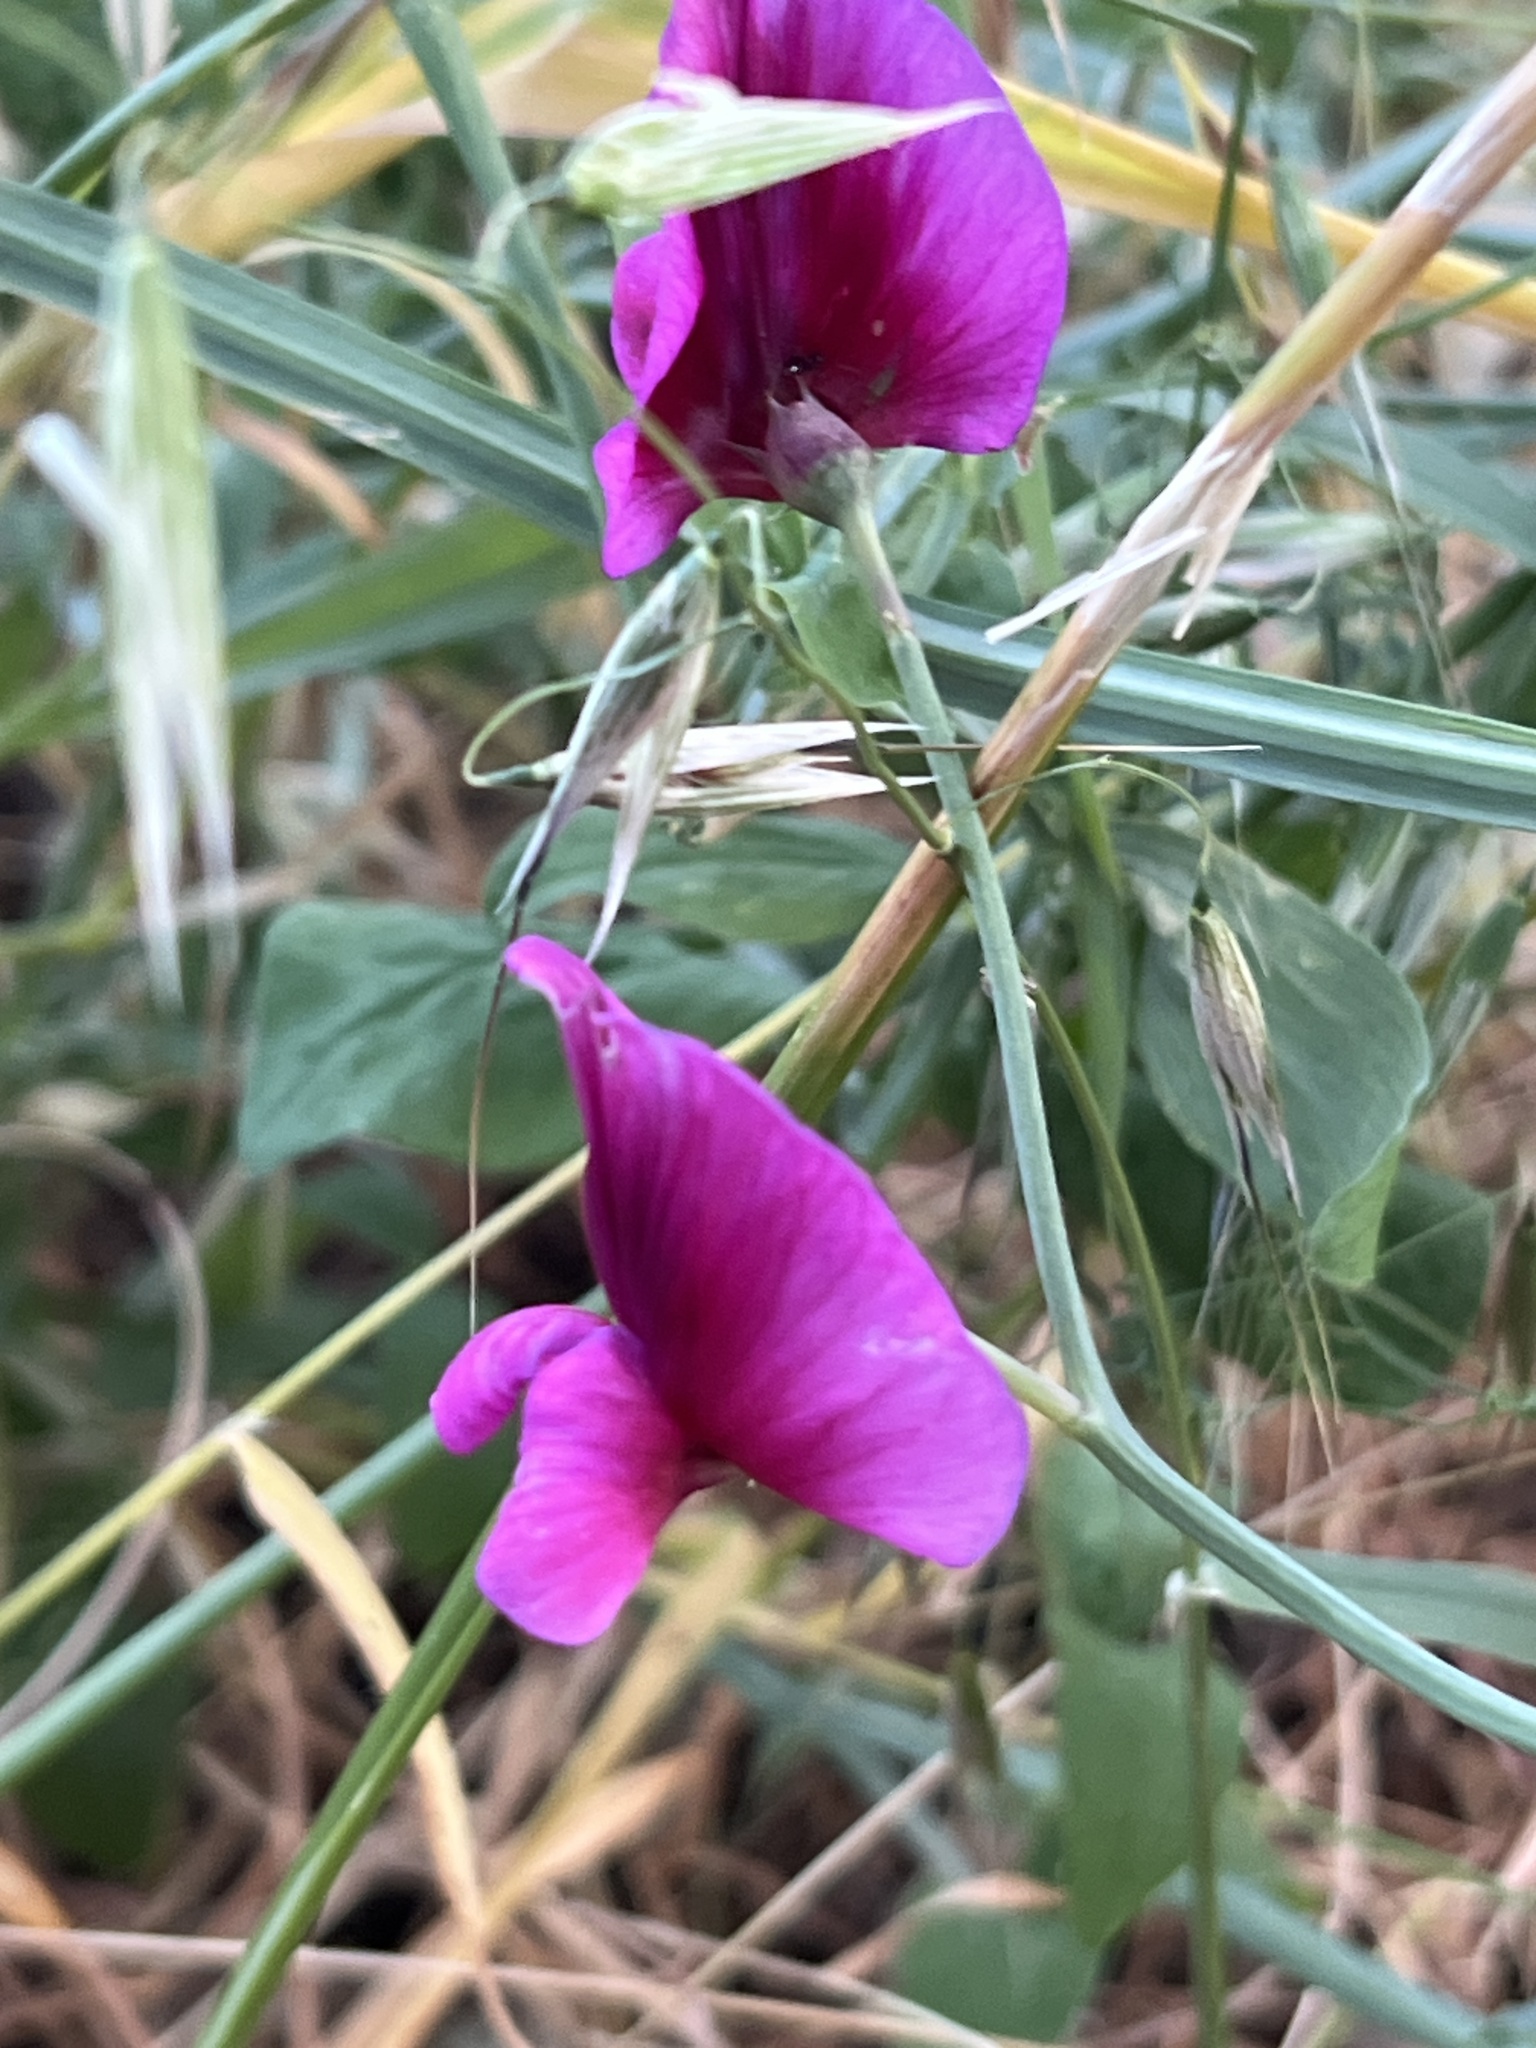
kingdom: Plantae
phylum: Tracheophyta
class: Magnoliopsida
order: Fabales
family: Fabaceae
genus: Lathyrus
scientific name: Lathyrus tingitanus
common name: Tangier pea
